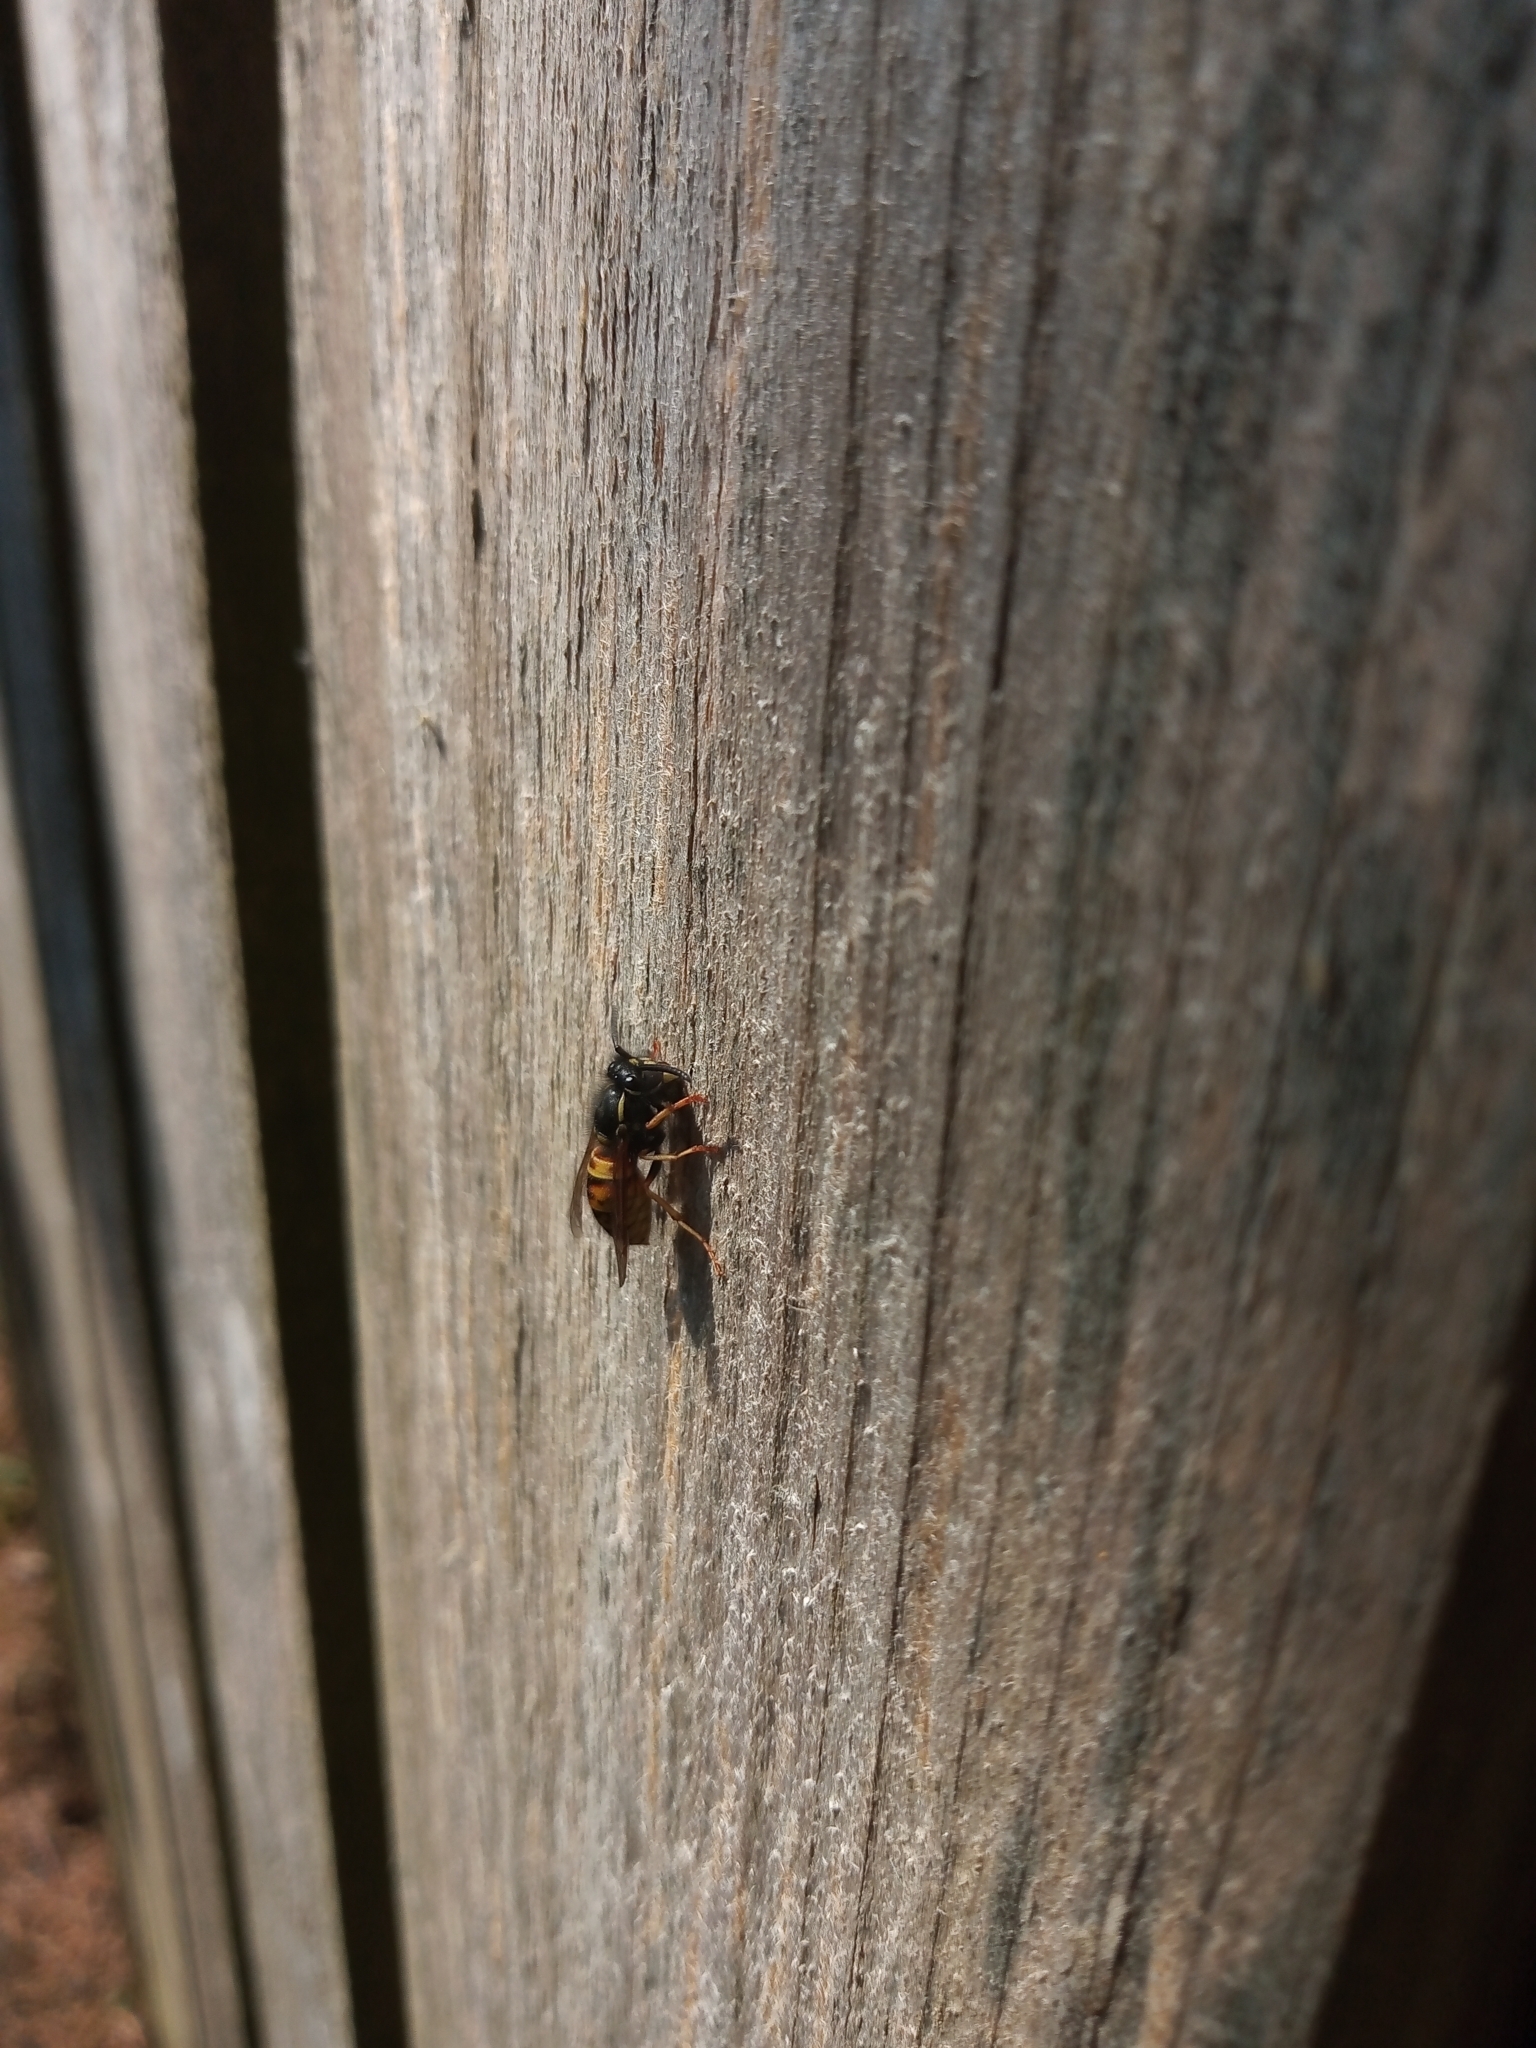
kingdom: Animalia
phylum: Arthropoda
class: Insecta
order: Hymenoptera
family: Vespidae
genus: Vespula
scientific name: Vespula rufa
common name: Red wasp
